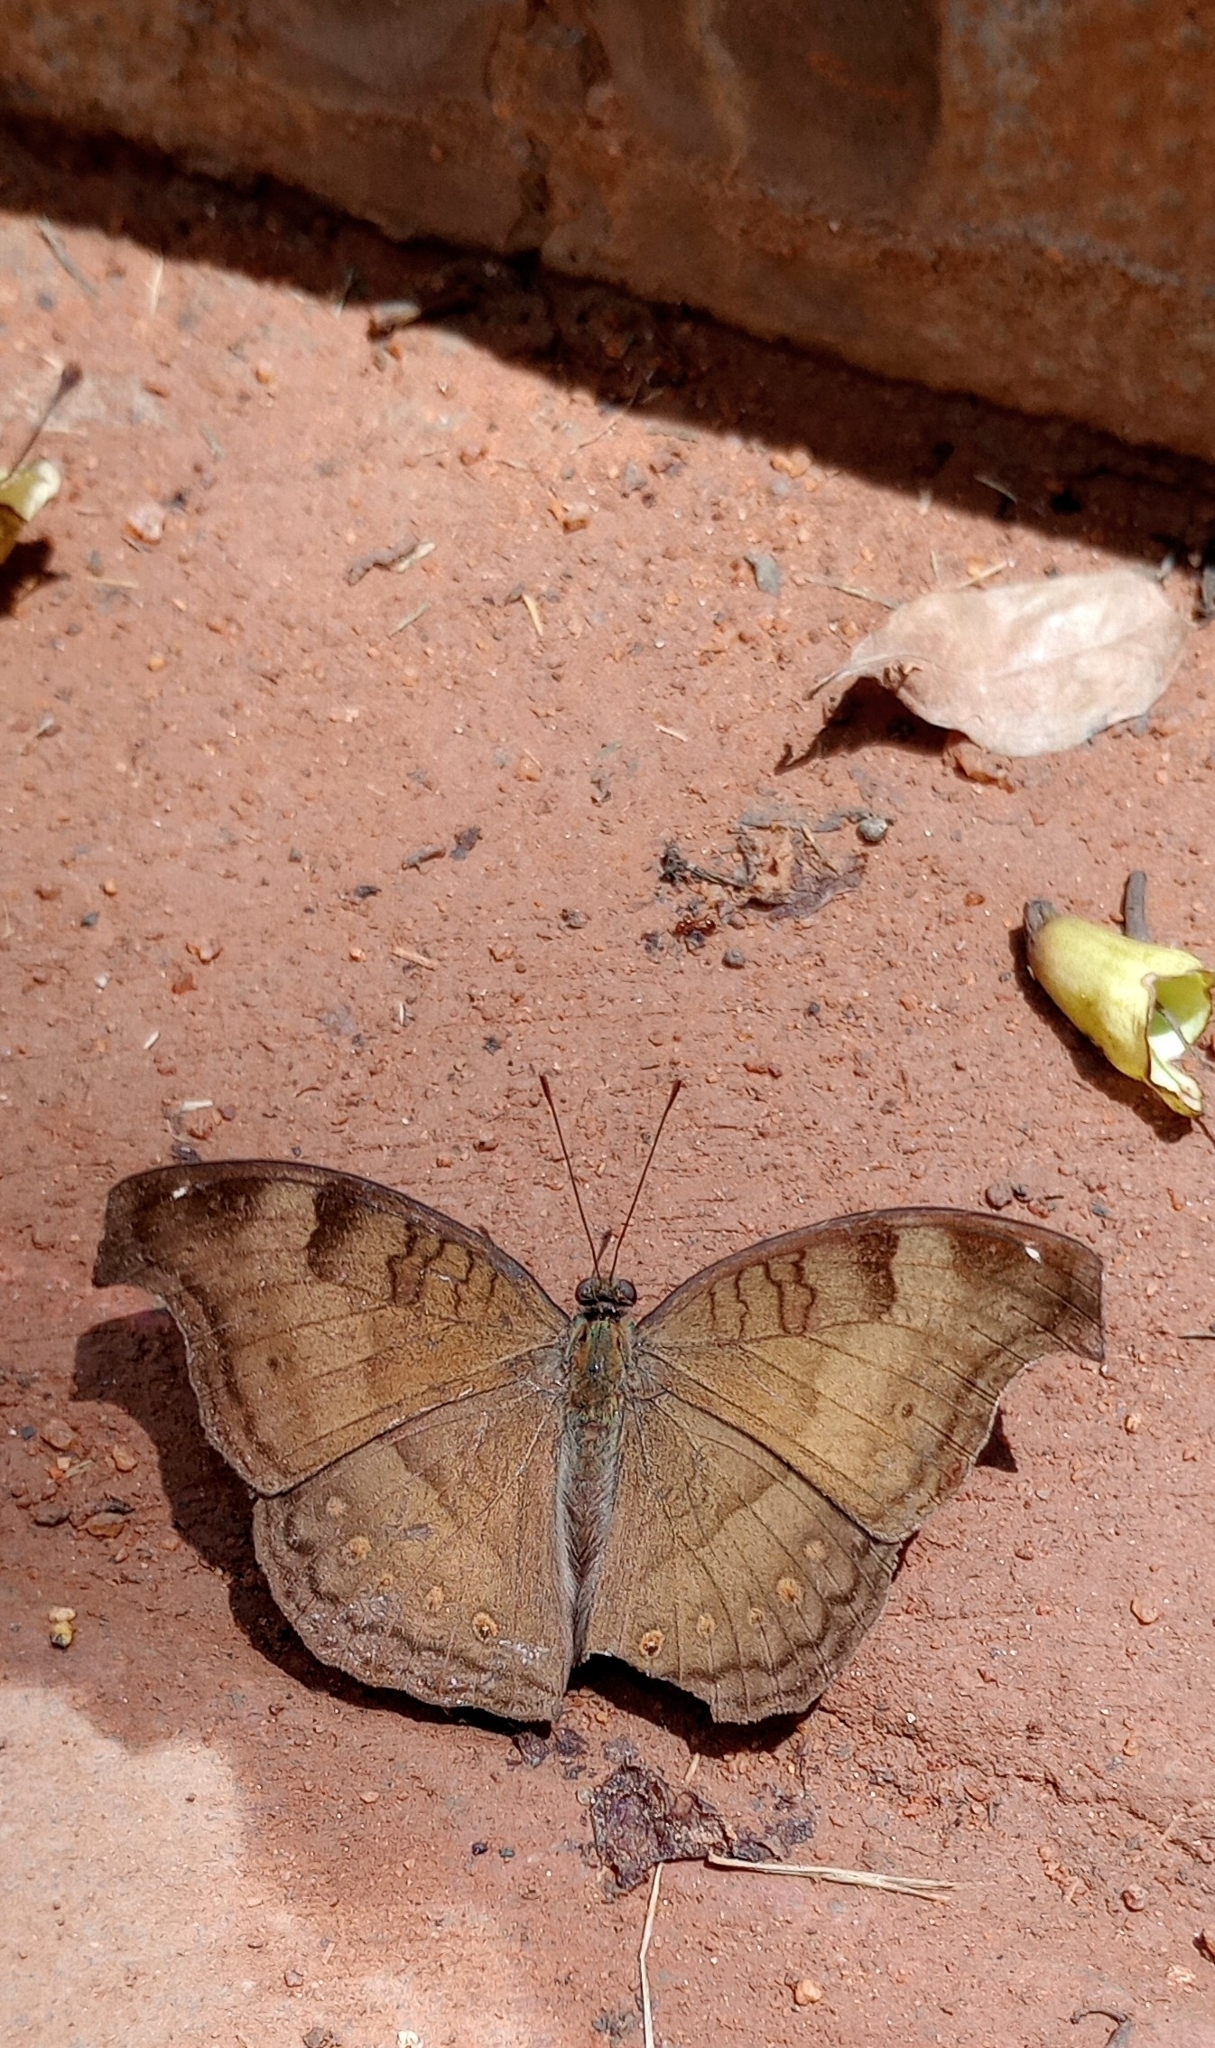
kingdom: Animalia
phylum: Arthropoda
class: Insecta
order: Lepidoptera
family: Nymphalidae
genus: Junonia
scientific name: Junonia iphita
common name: Chocolate pansy
